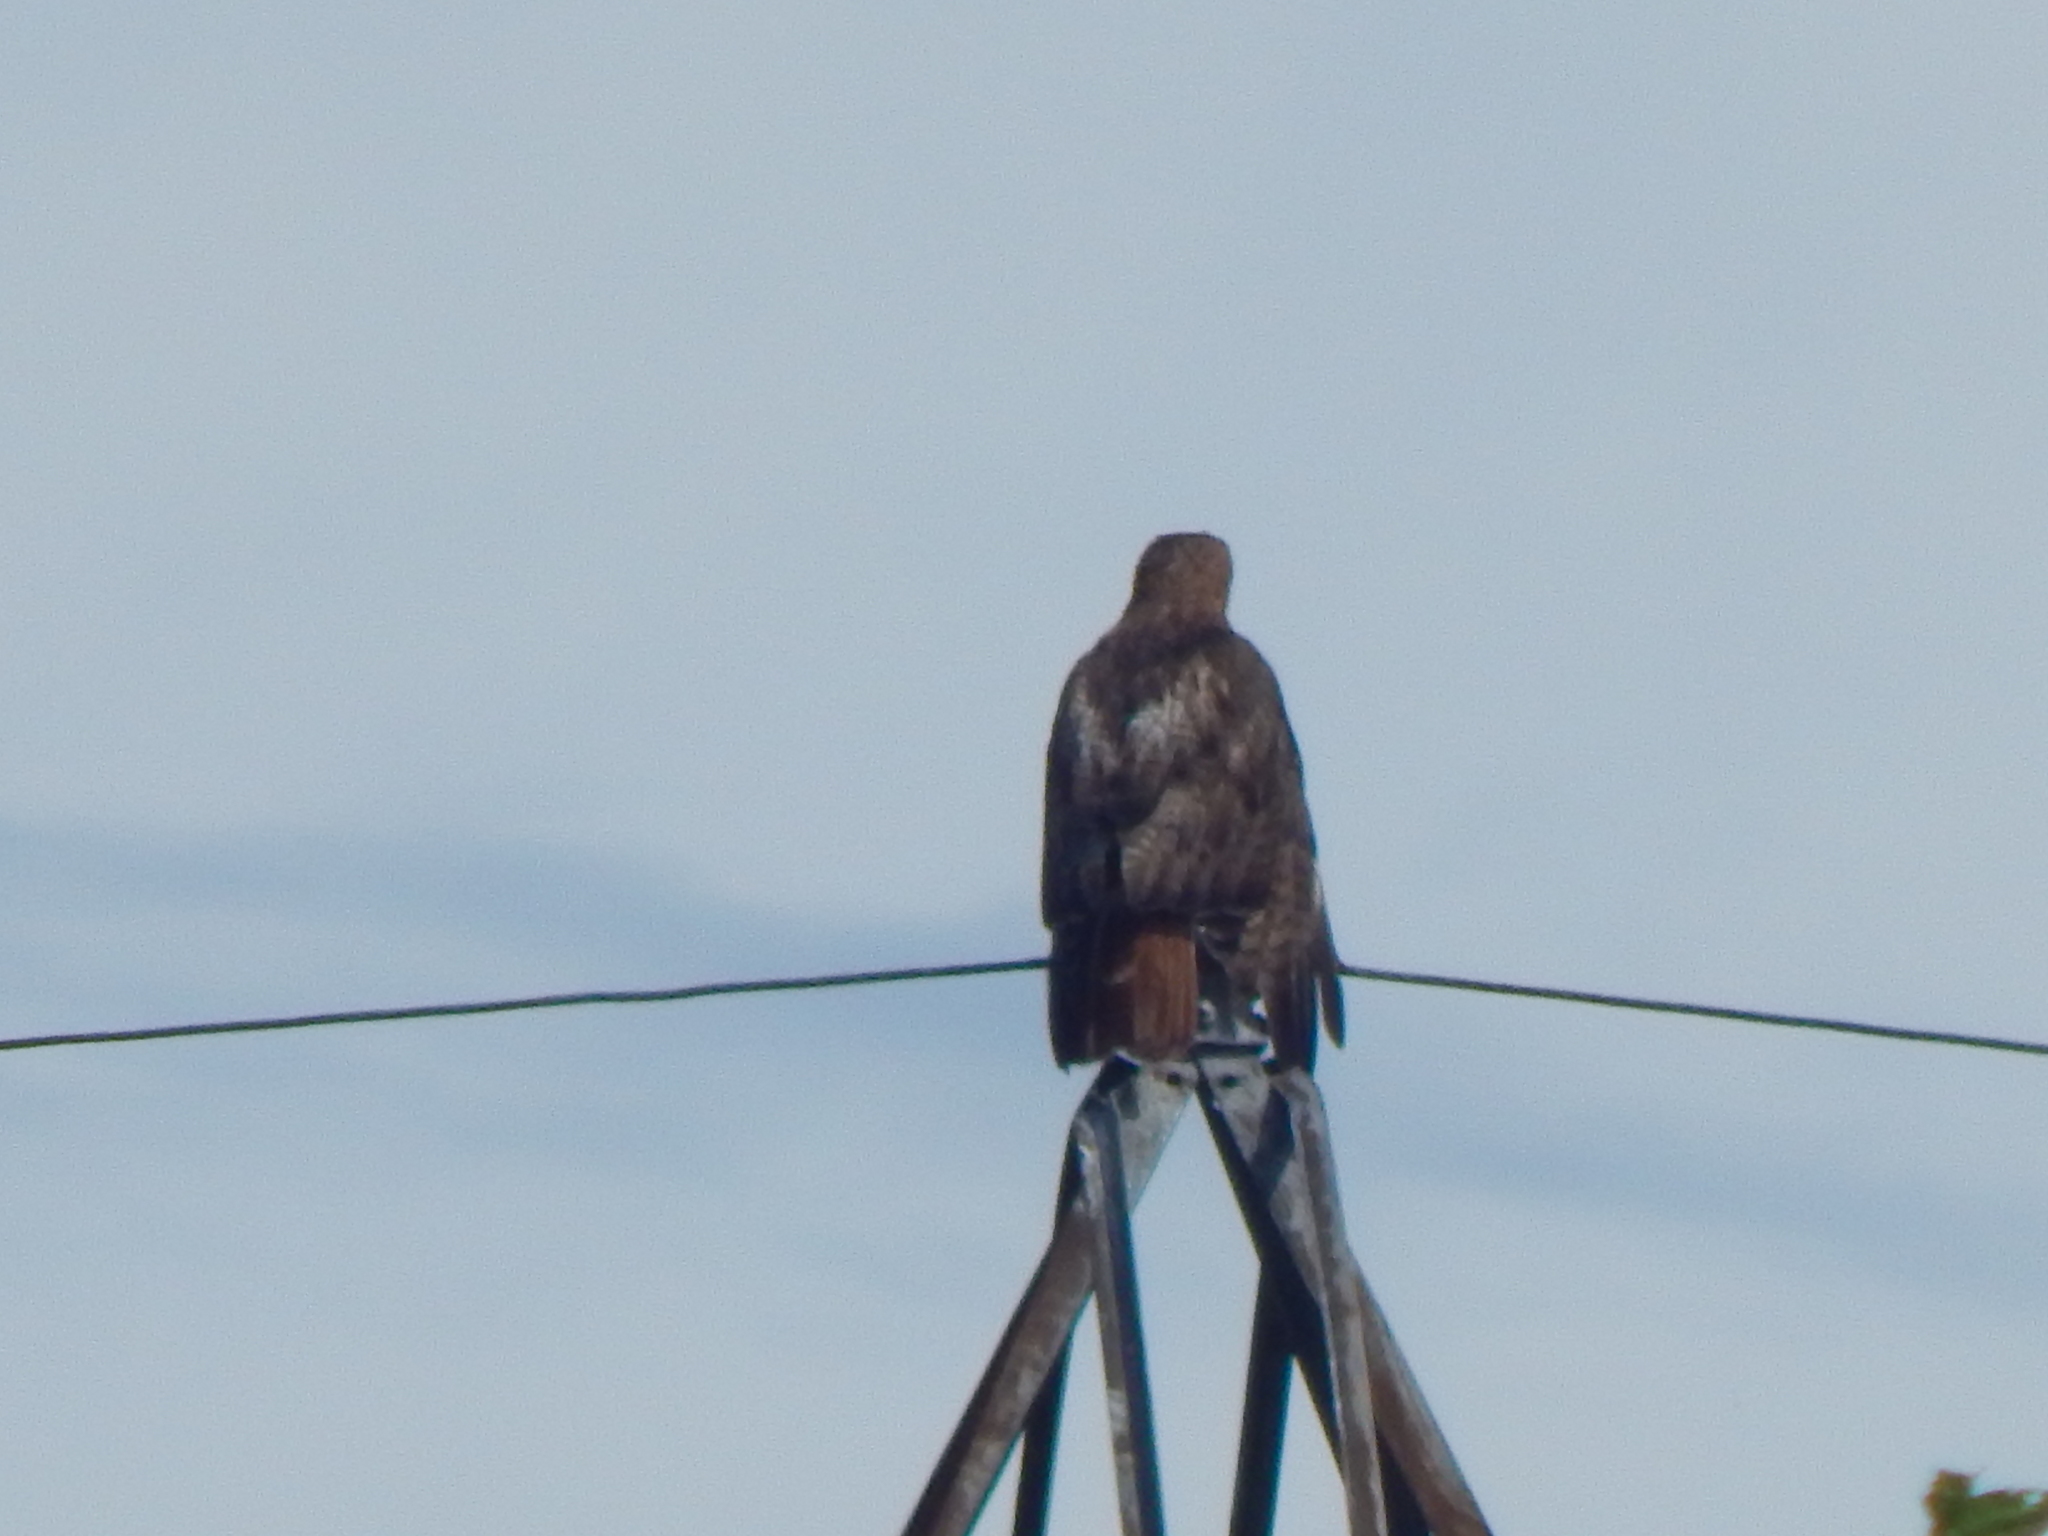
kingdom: Animalia
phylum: Chordata
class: Aves
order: Accipitriformes
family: Accipitridae
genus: Buteo
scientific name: Buteo jamaicensis
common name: Red-tailed hawk
